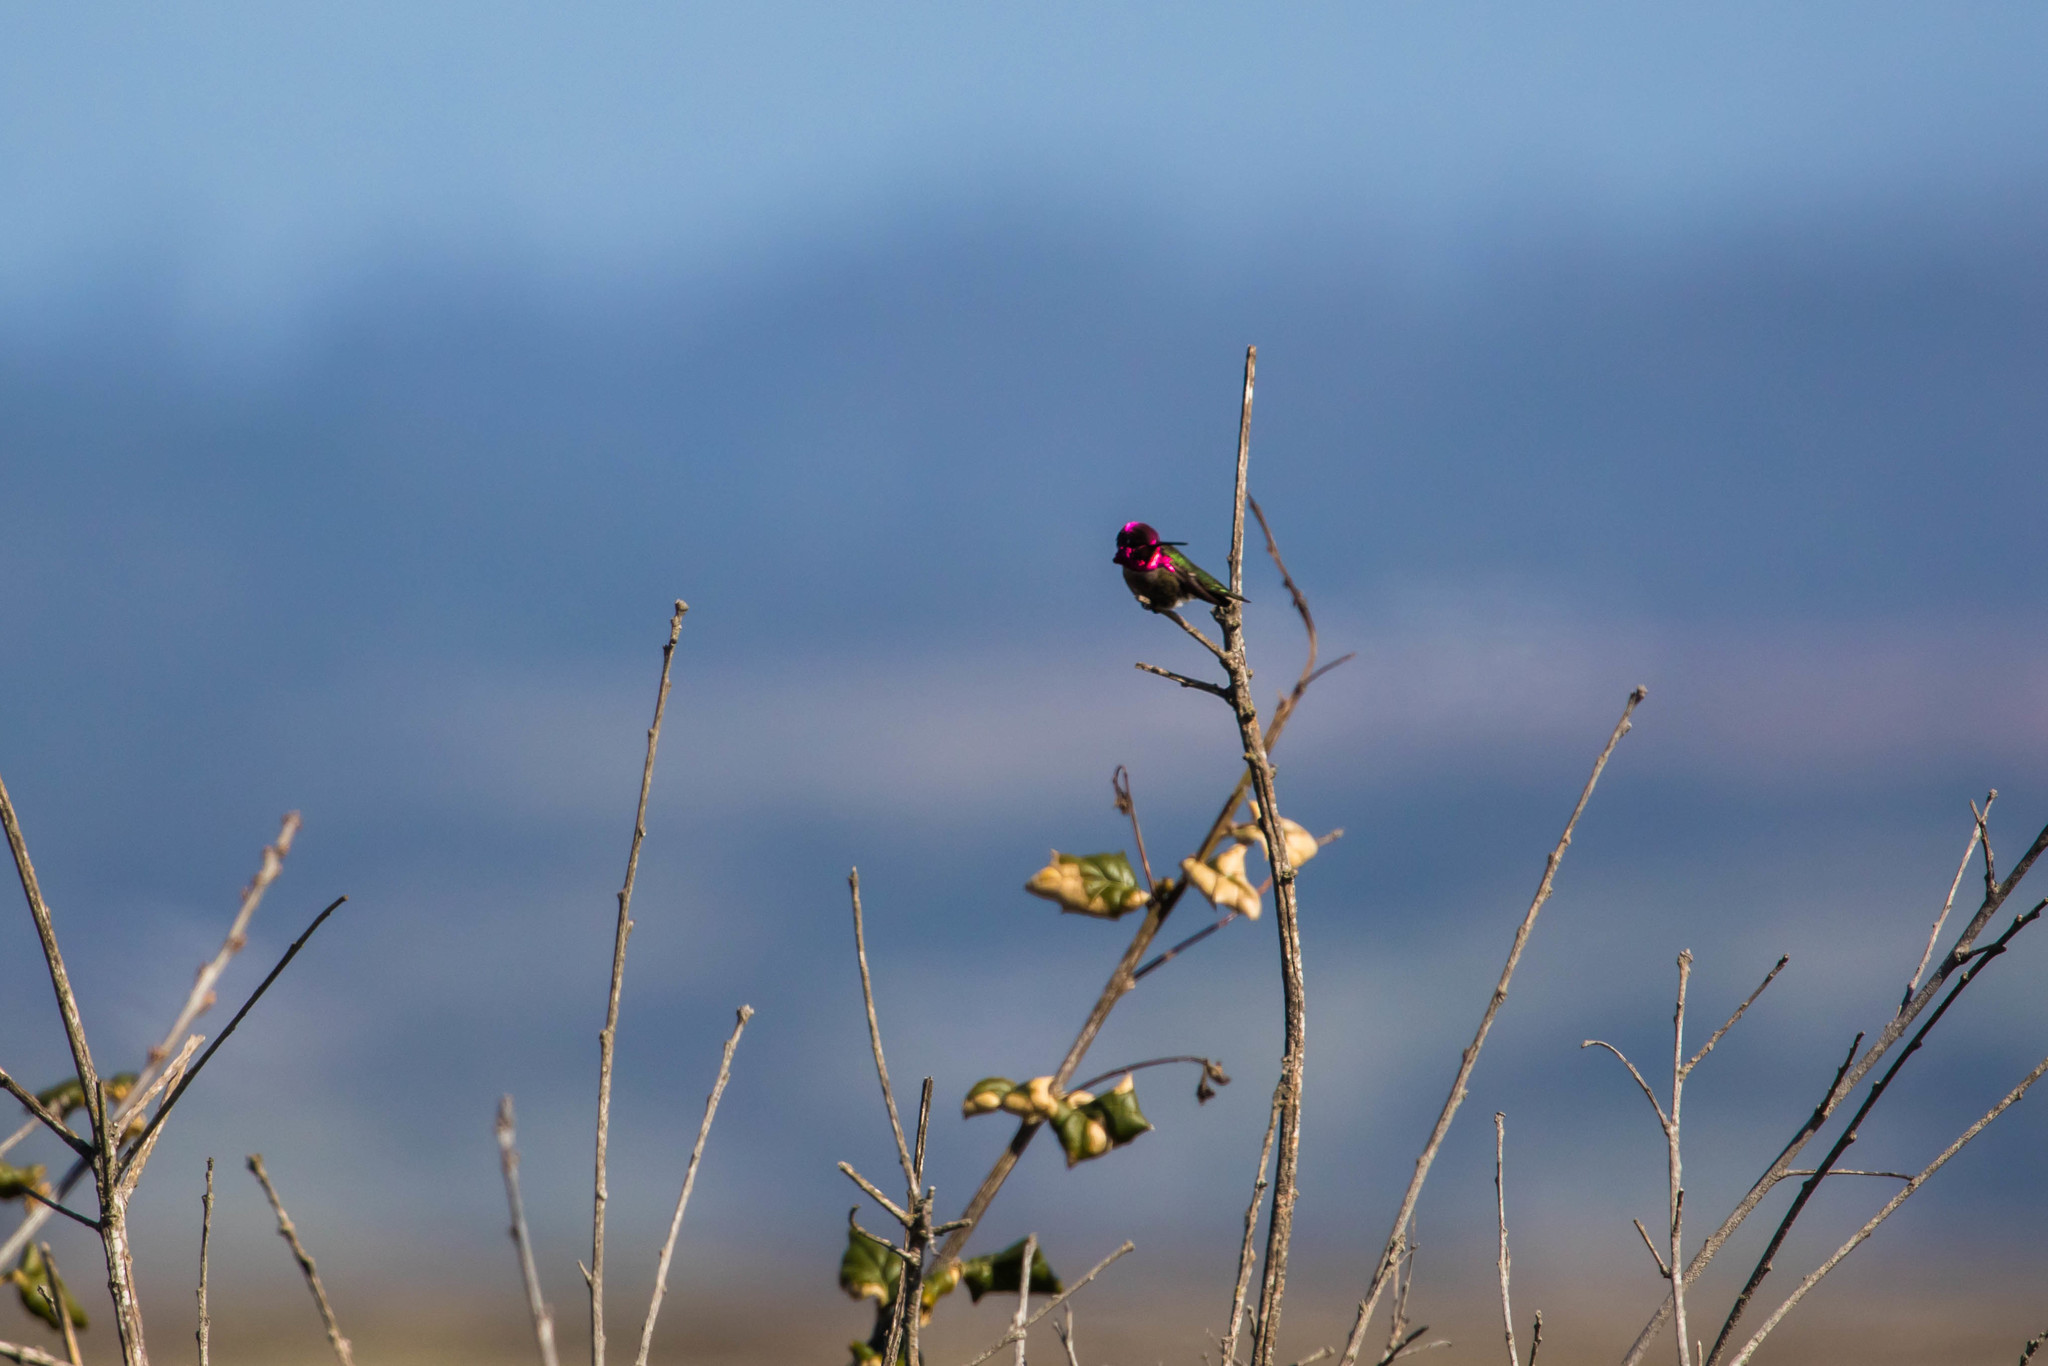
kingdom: Animalia
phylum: Chordata
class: Aves
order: Apodiformes
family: Trochilidae
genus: Calypte
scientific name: Calypte anna
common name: Anna's hummingbird
